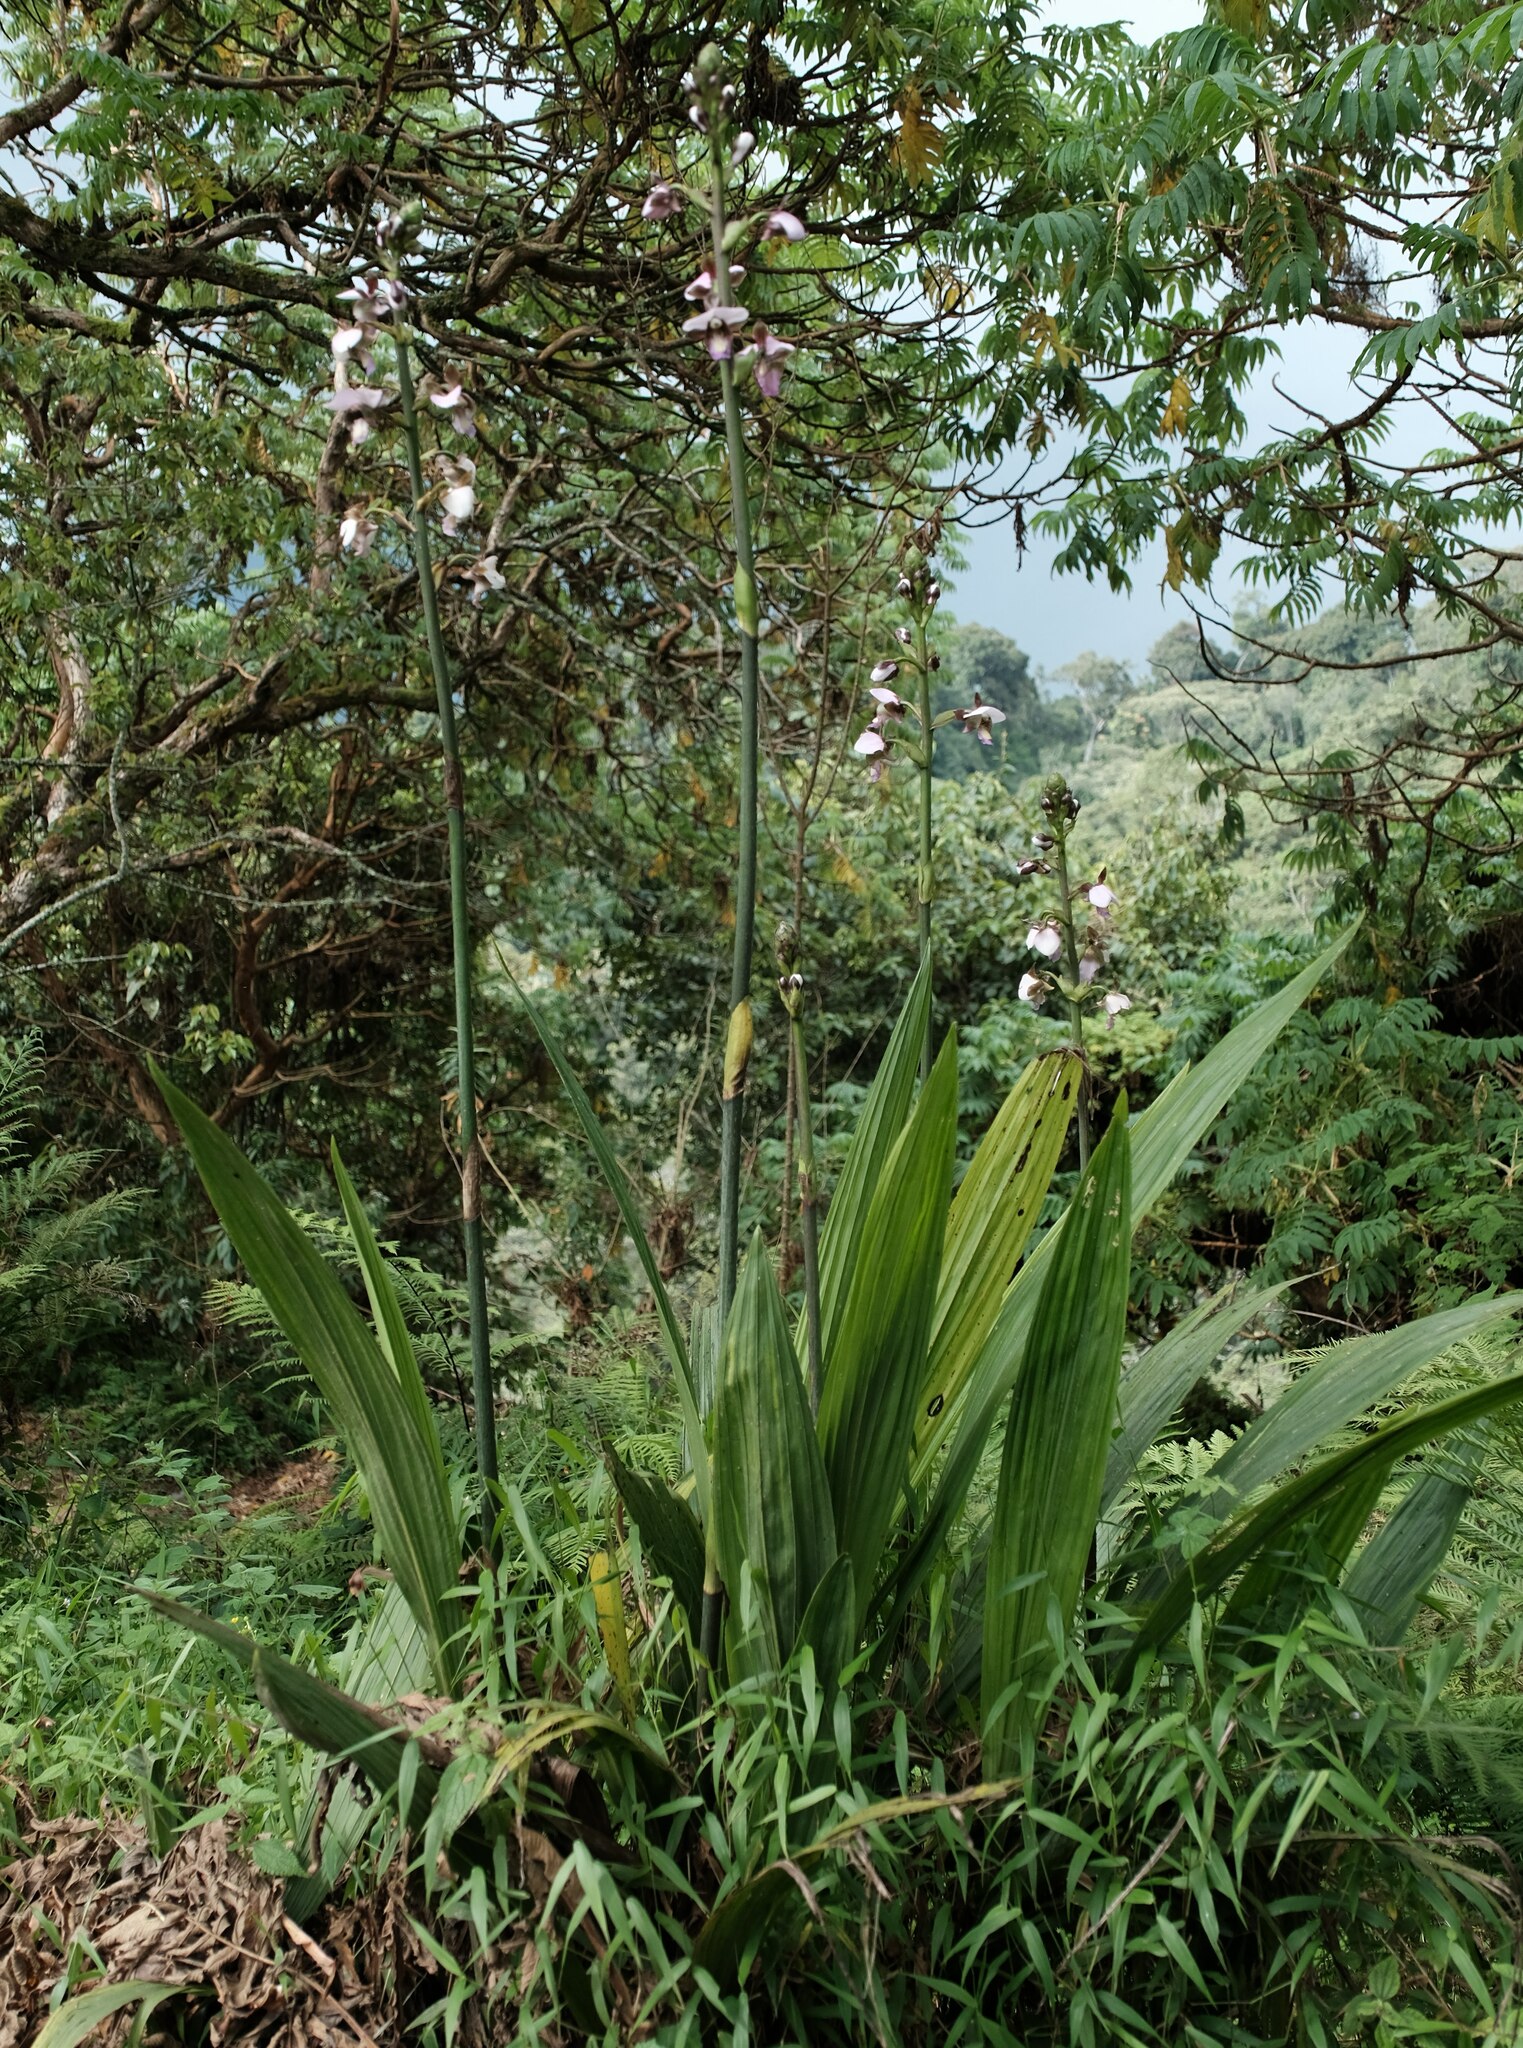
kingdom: Plantae
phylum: Tracheophyta
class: Liliopsida
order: Asparagales
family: Orchidaceae
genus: Eulophia
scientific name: Eulophia horsfallii
